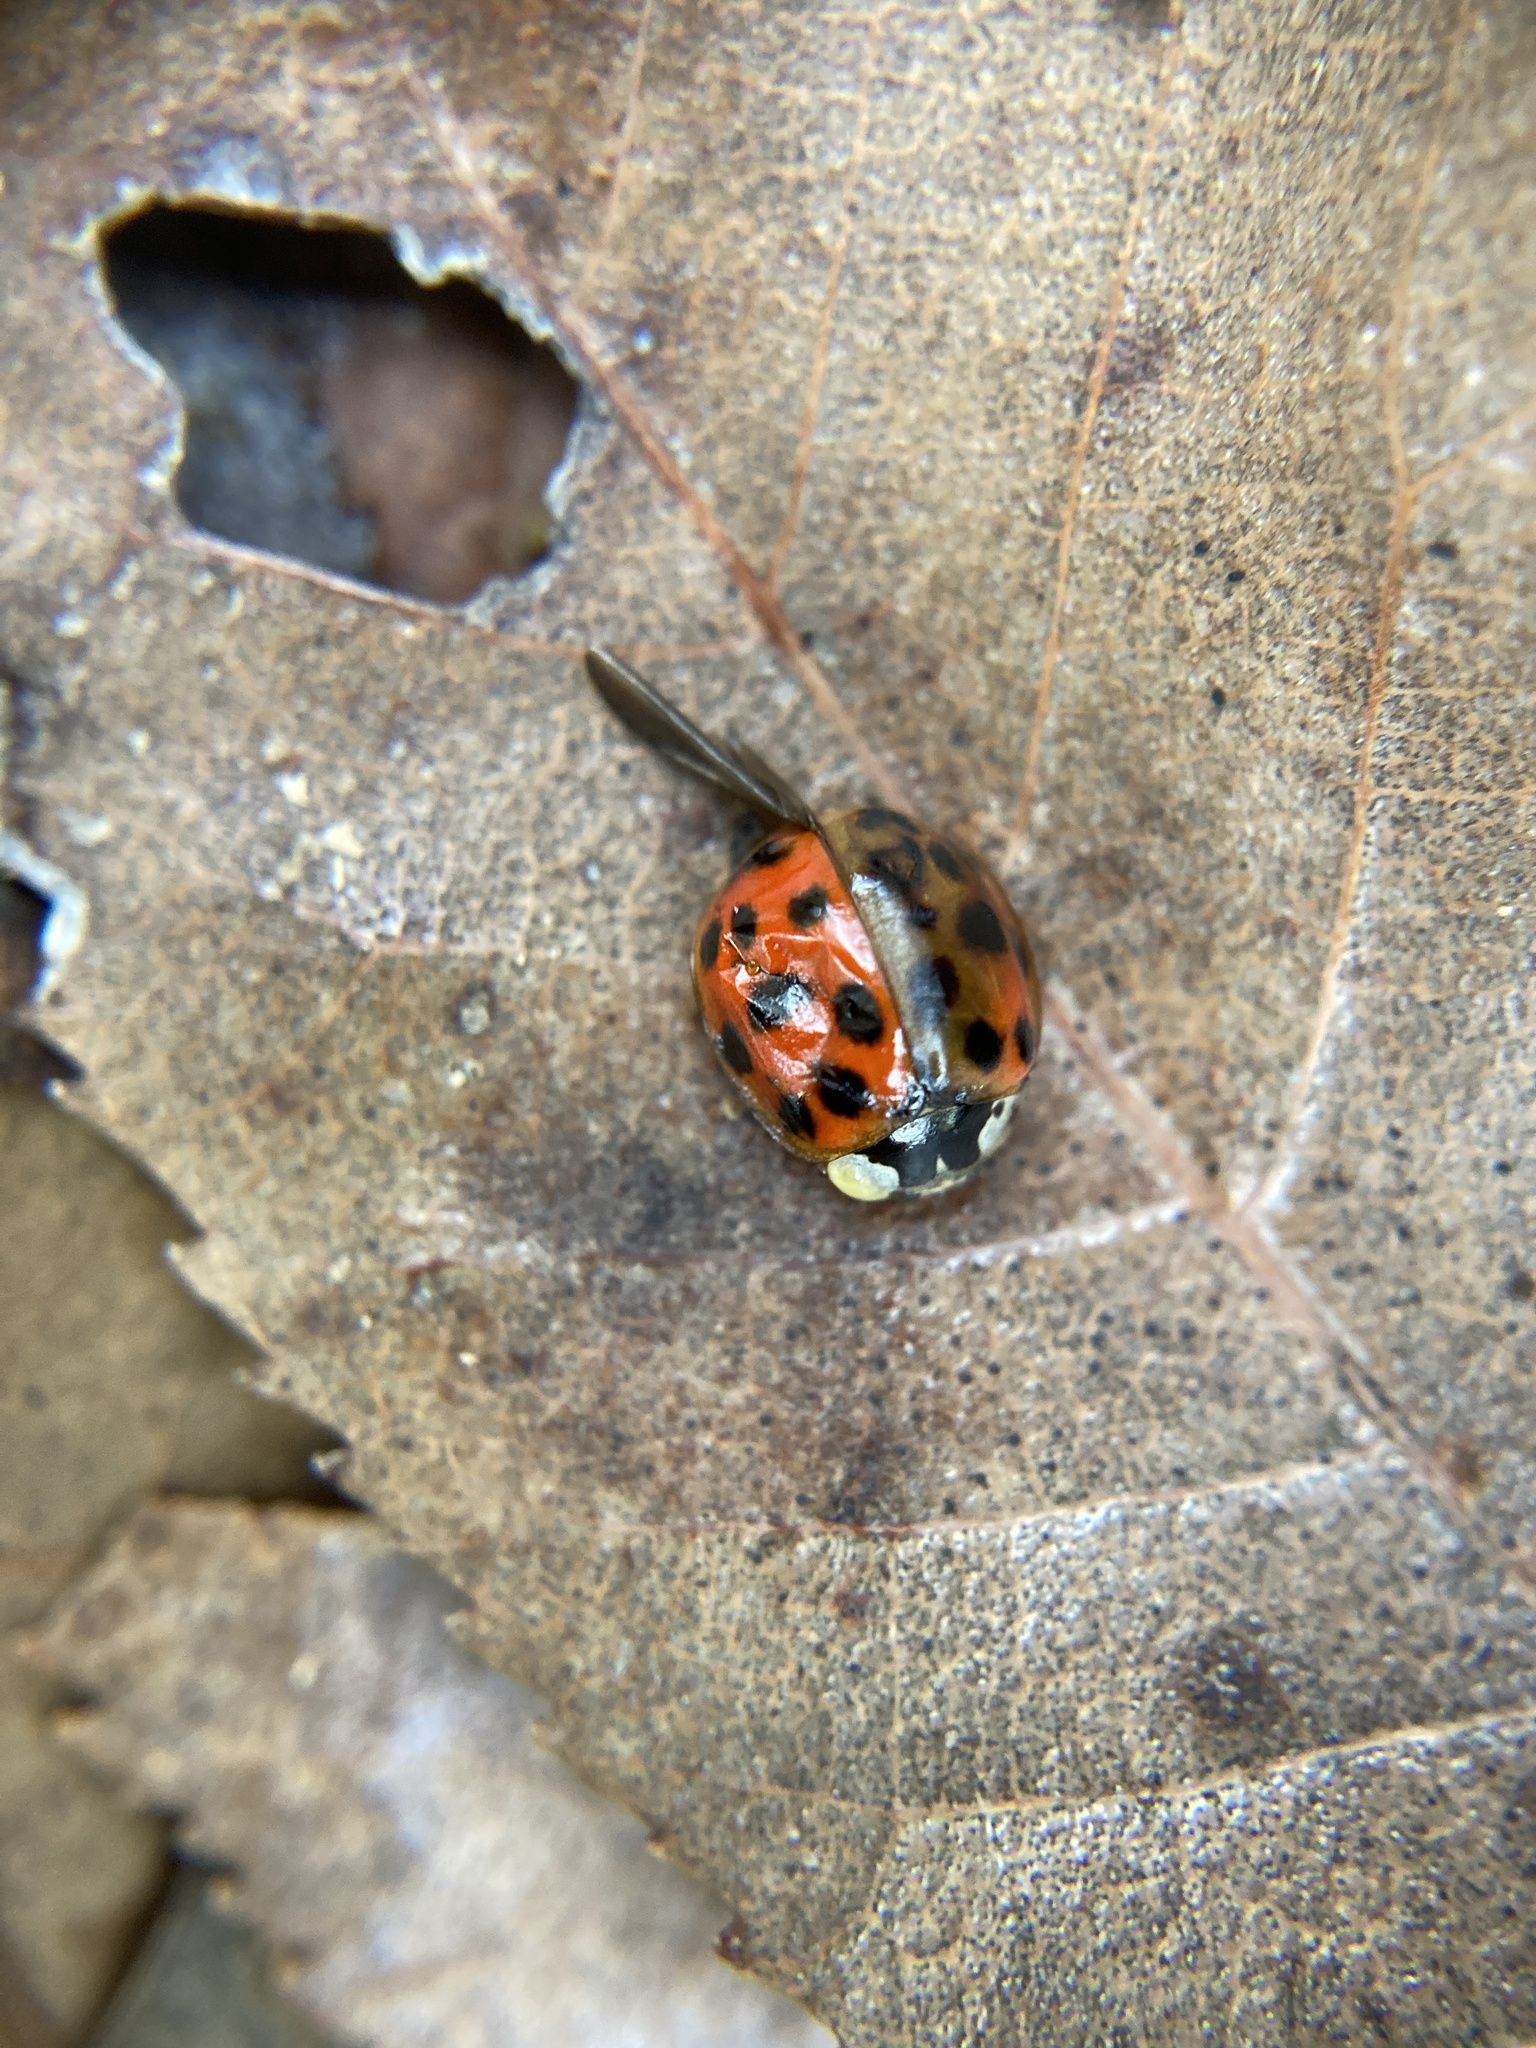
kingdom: Animalia
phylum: Arthropoda
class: Insecta
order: Coleoptera
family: Coccinellidae
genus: Harmonia
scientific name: Harmonia axyridis
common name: Harlequin ladybird
